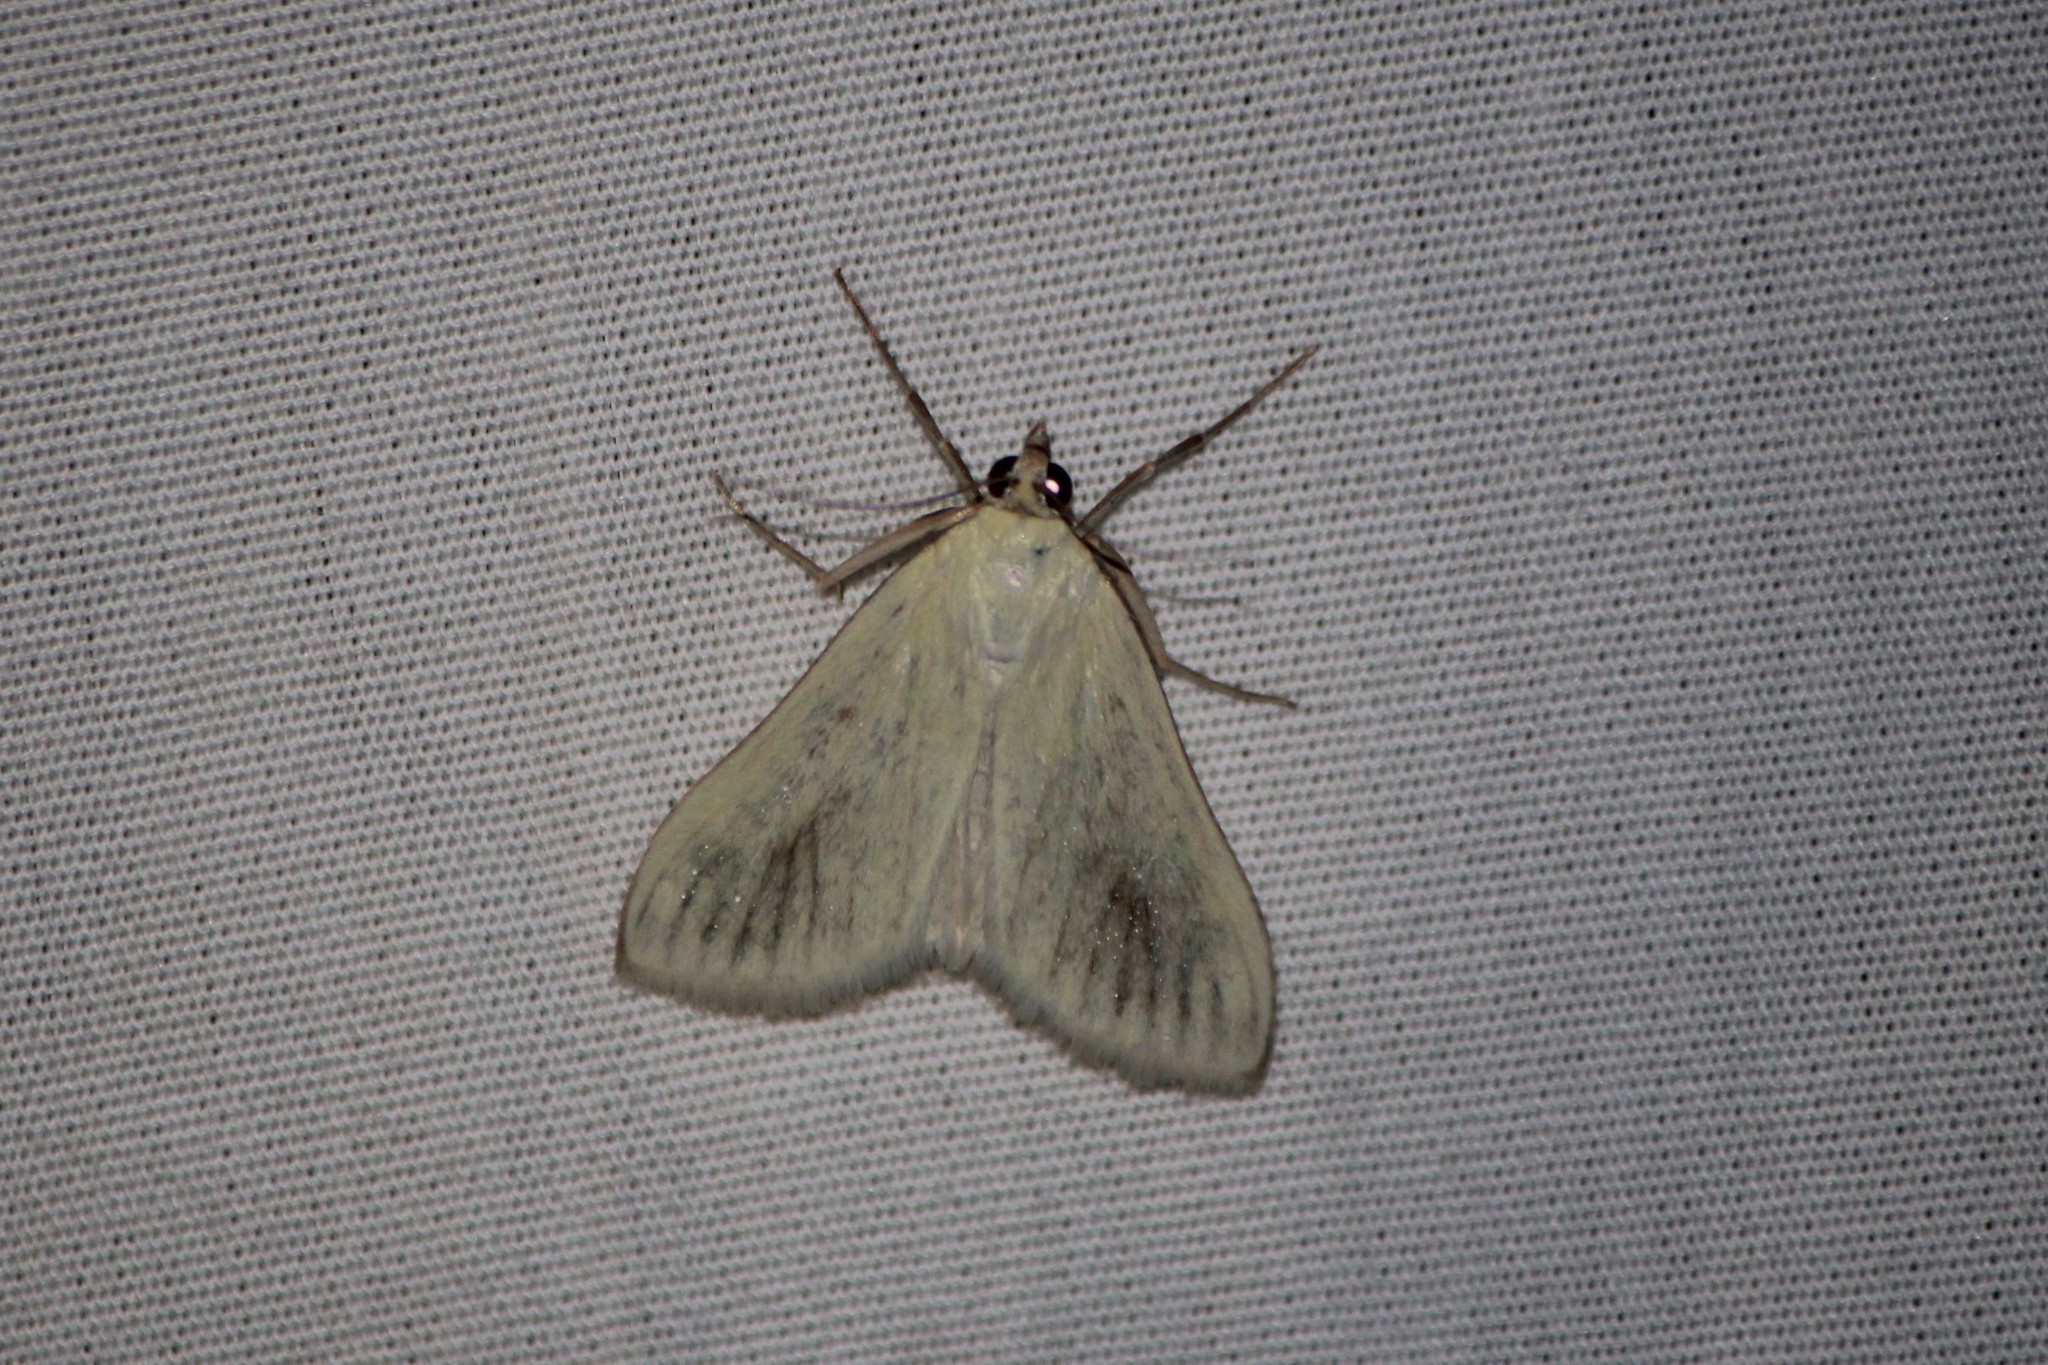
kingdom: Animalia
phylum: Arthropoda
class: Insecta
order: Lepidoptera
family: Crambidae
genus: Sitochroa
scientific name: Sitochroa palealis
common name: Greenish-yellow sitochroa moth
